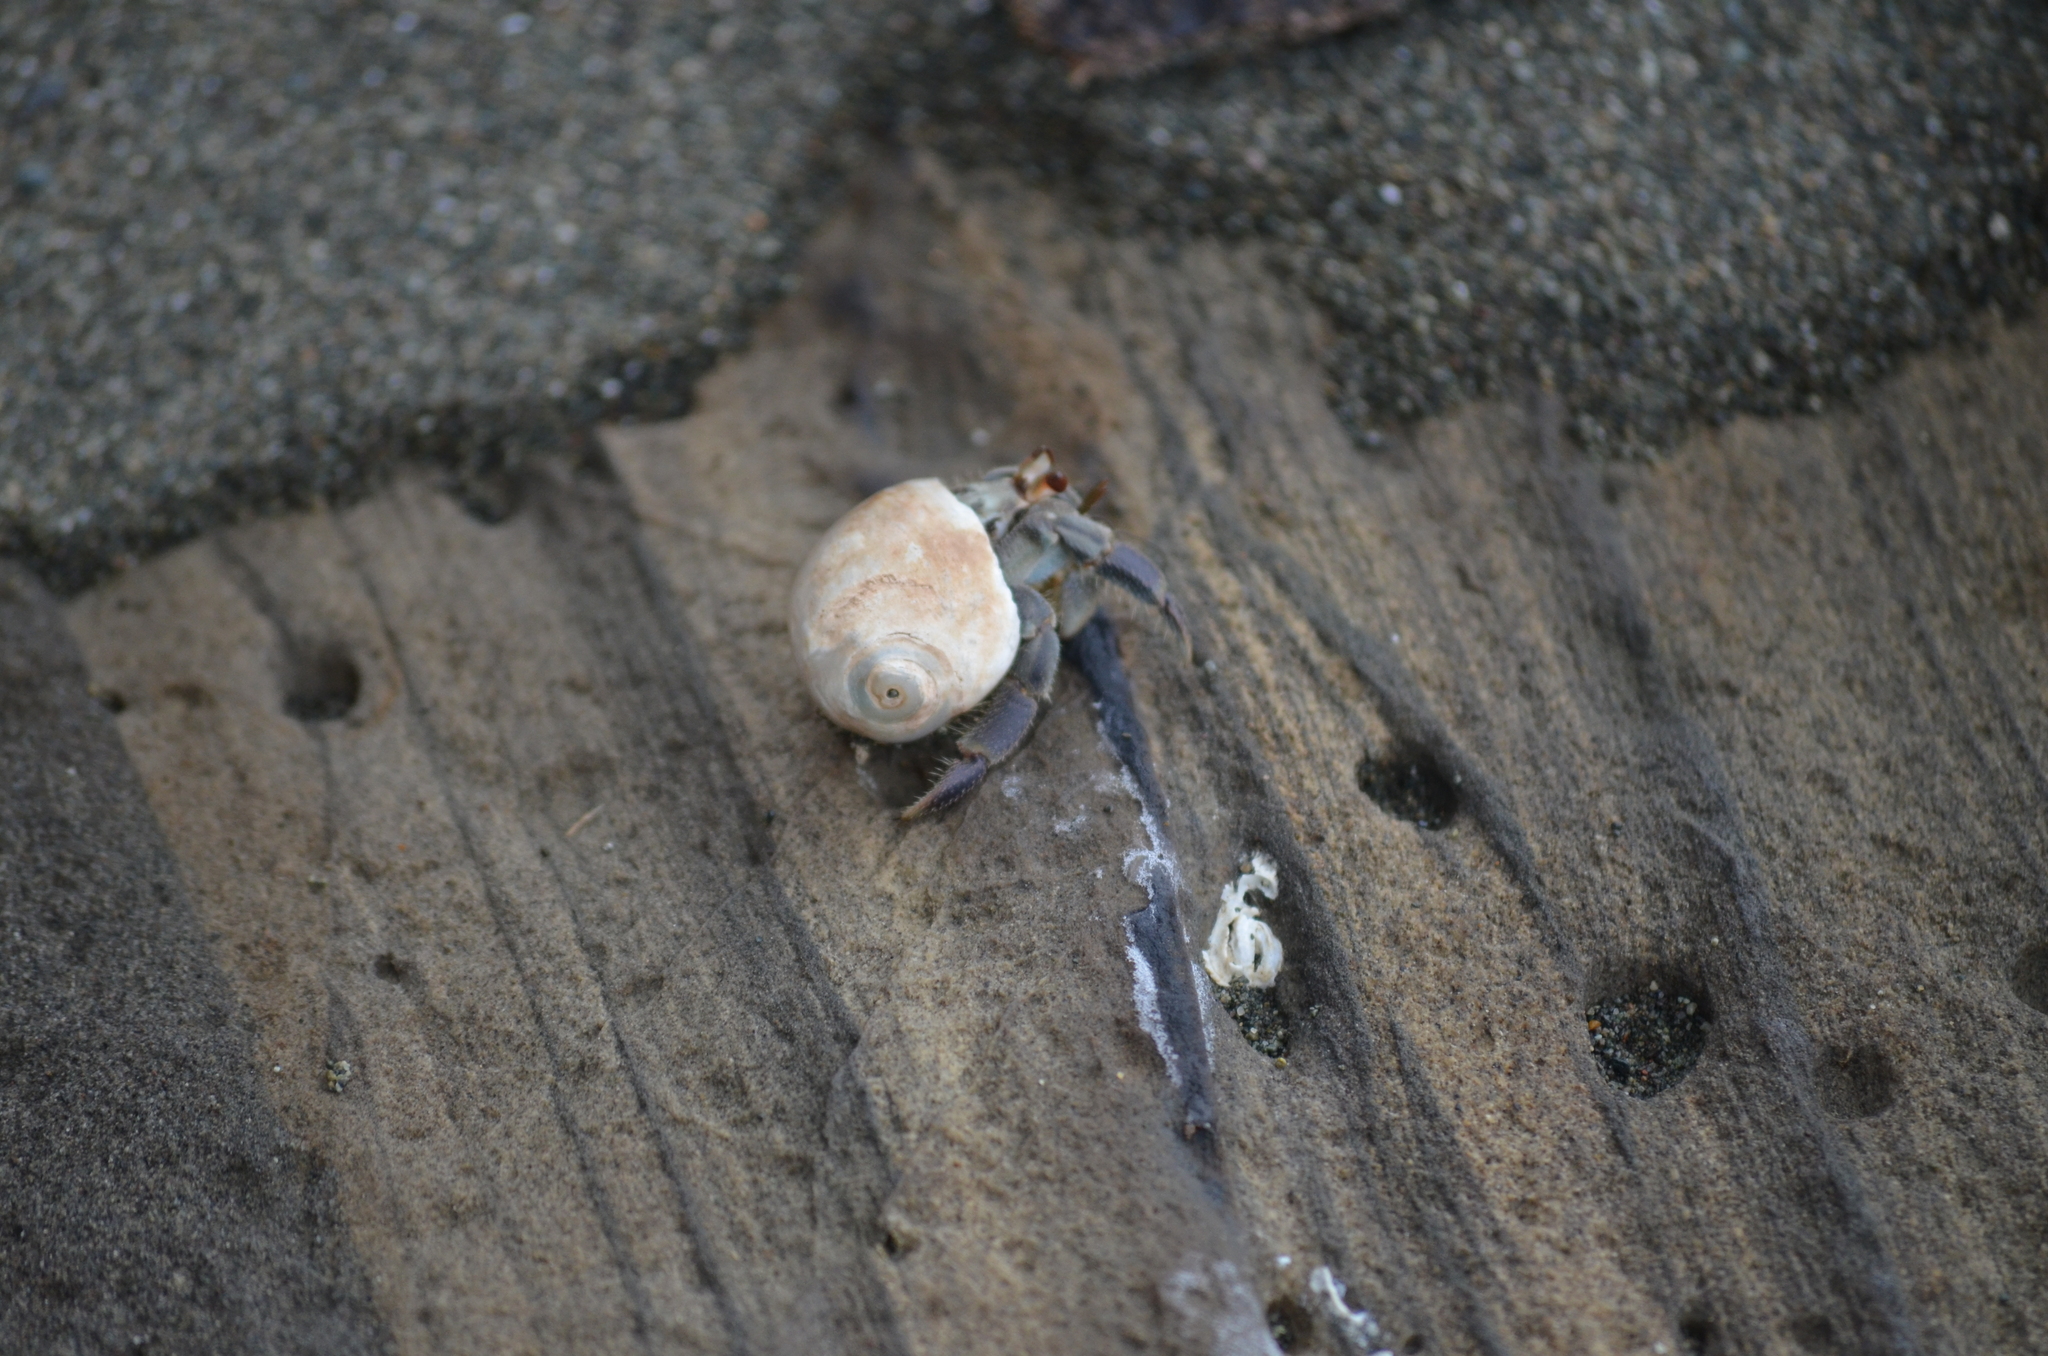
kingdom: Animalia
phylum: Arthropoda
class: Malacostraca
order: Decapoda
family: Coenobitidae
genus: Coenobita
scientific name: Coenobita compressus
